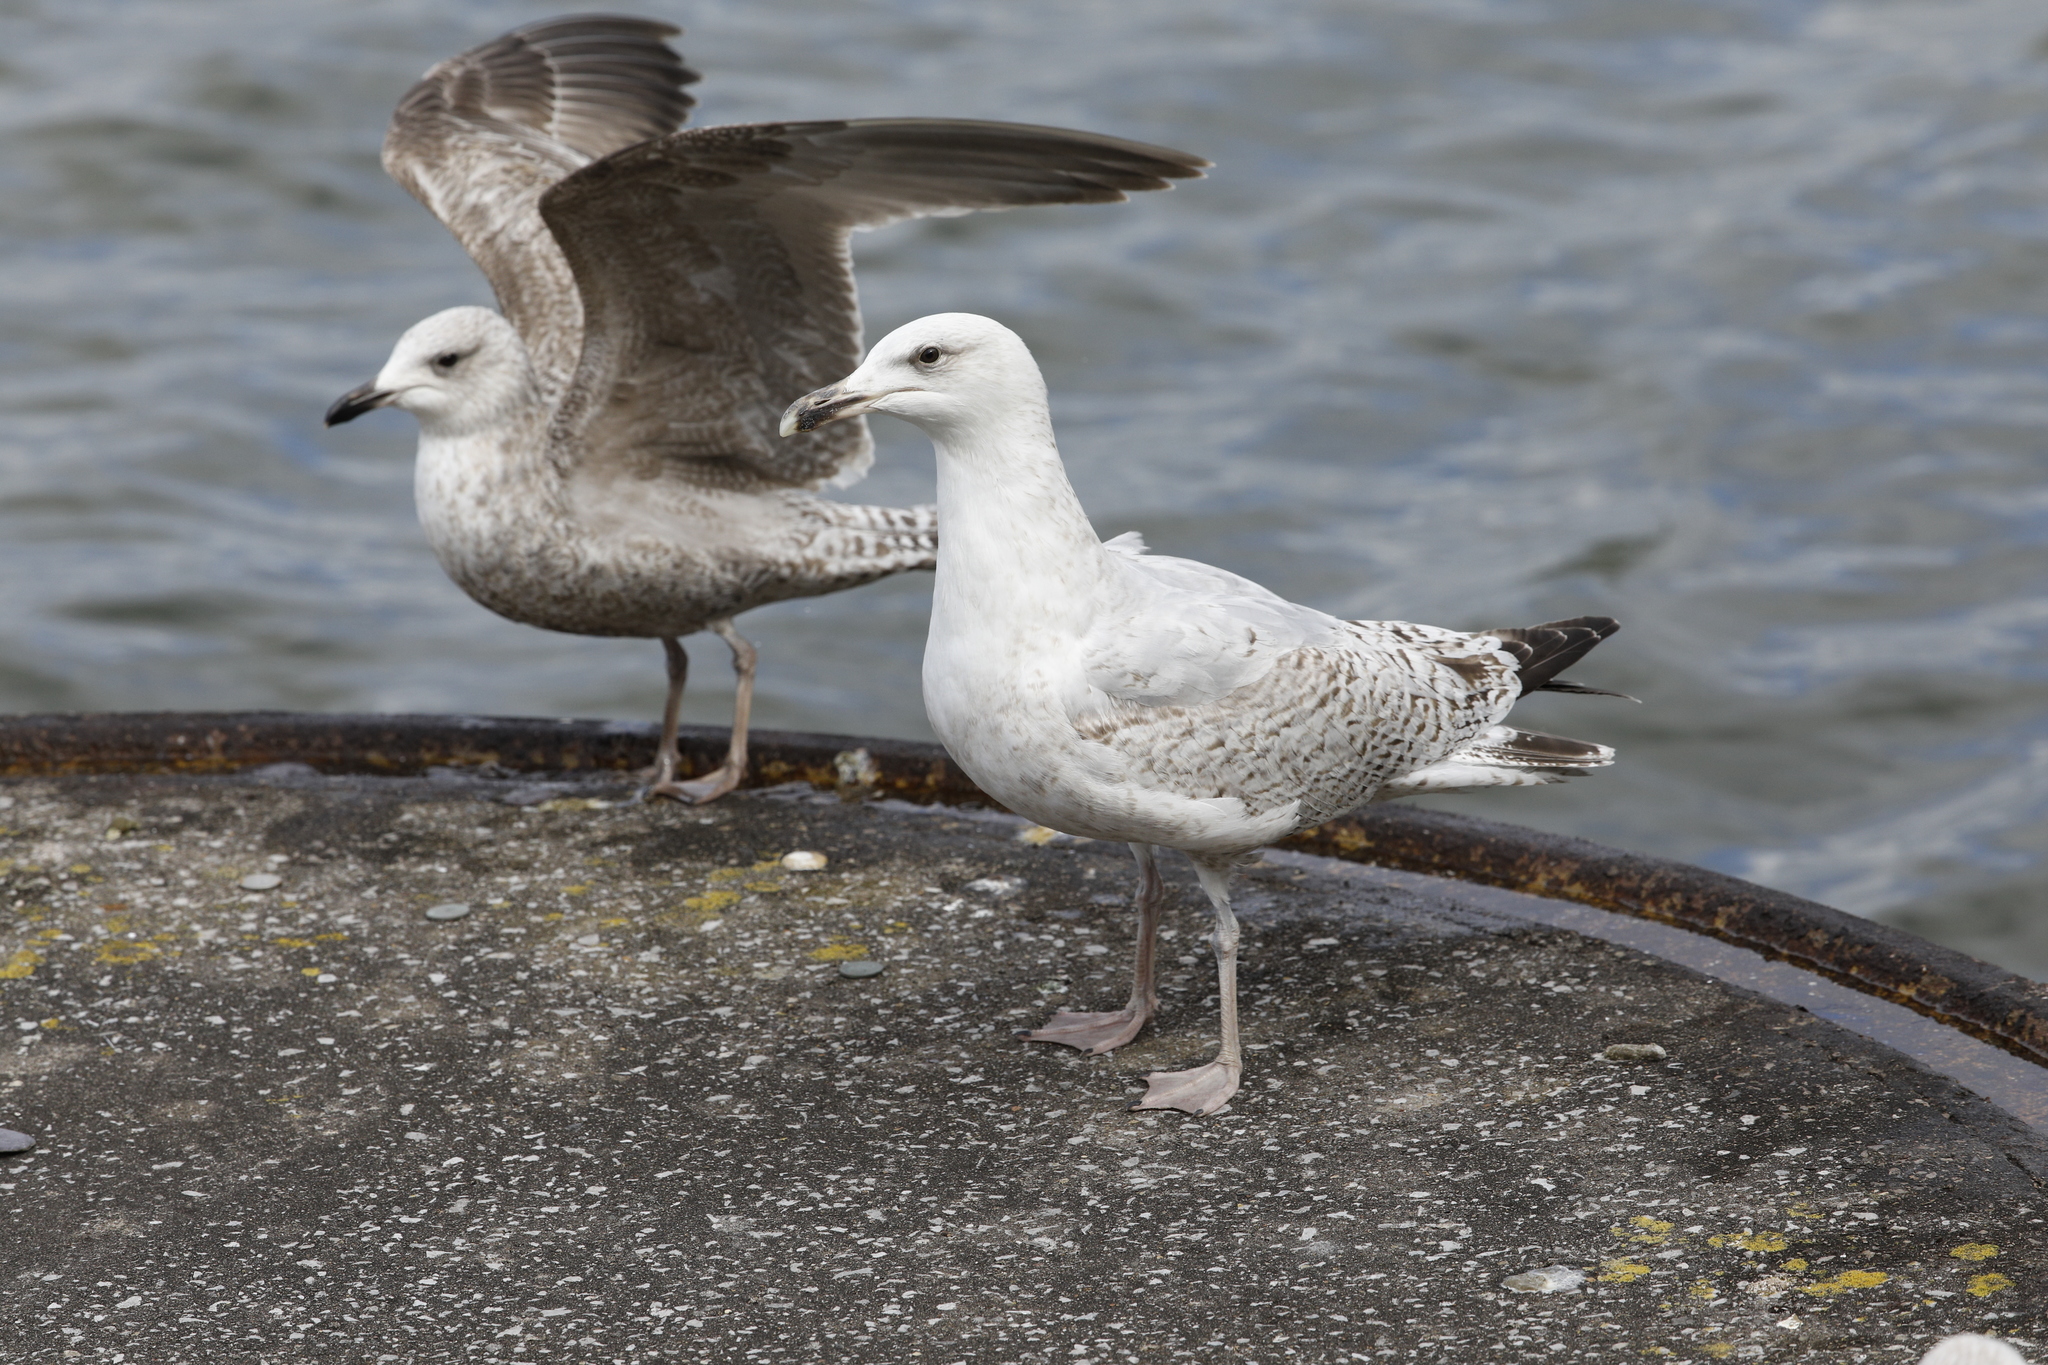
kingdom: Animalia
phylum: Chordata
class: Aves
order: Charadriiformes
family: Laridae
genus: Larus
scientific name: Larus argentatus
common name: Herring gull
